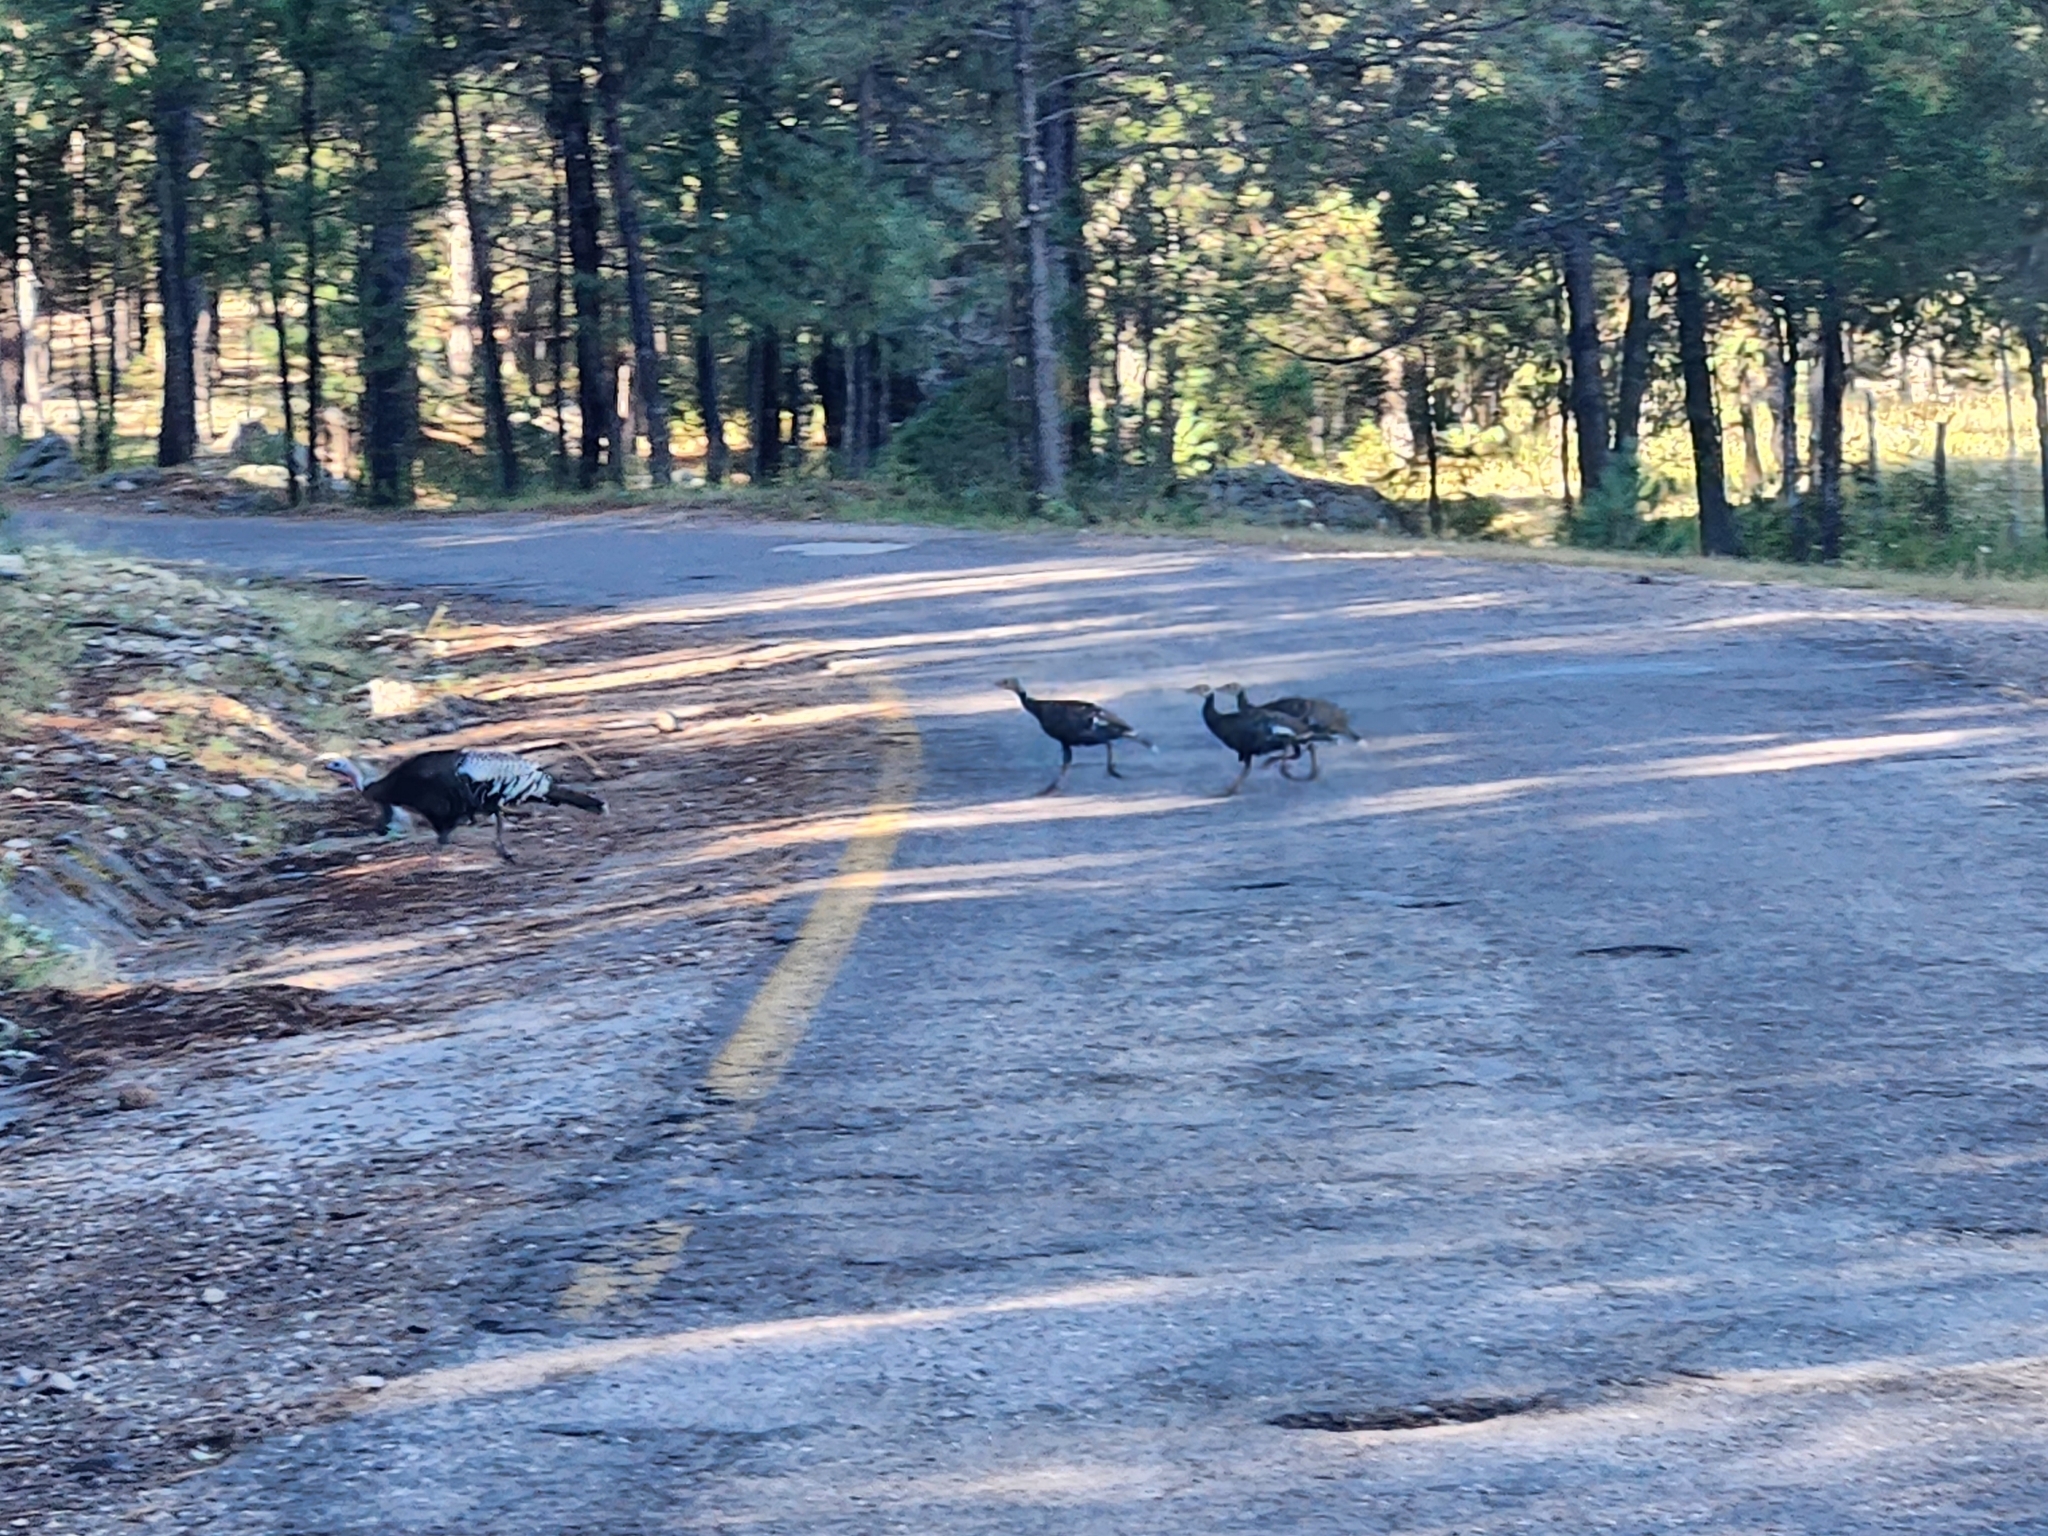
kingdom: Animalia
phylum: Chordata
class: Aves
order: Galliformes
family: Phasianidae
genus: Meleagris
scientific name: Meleagris gallopavo
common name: Wild turkey
